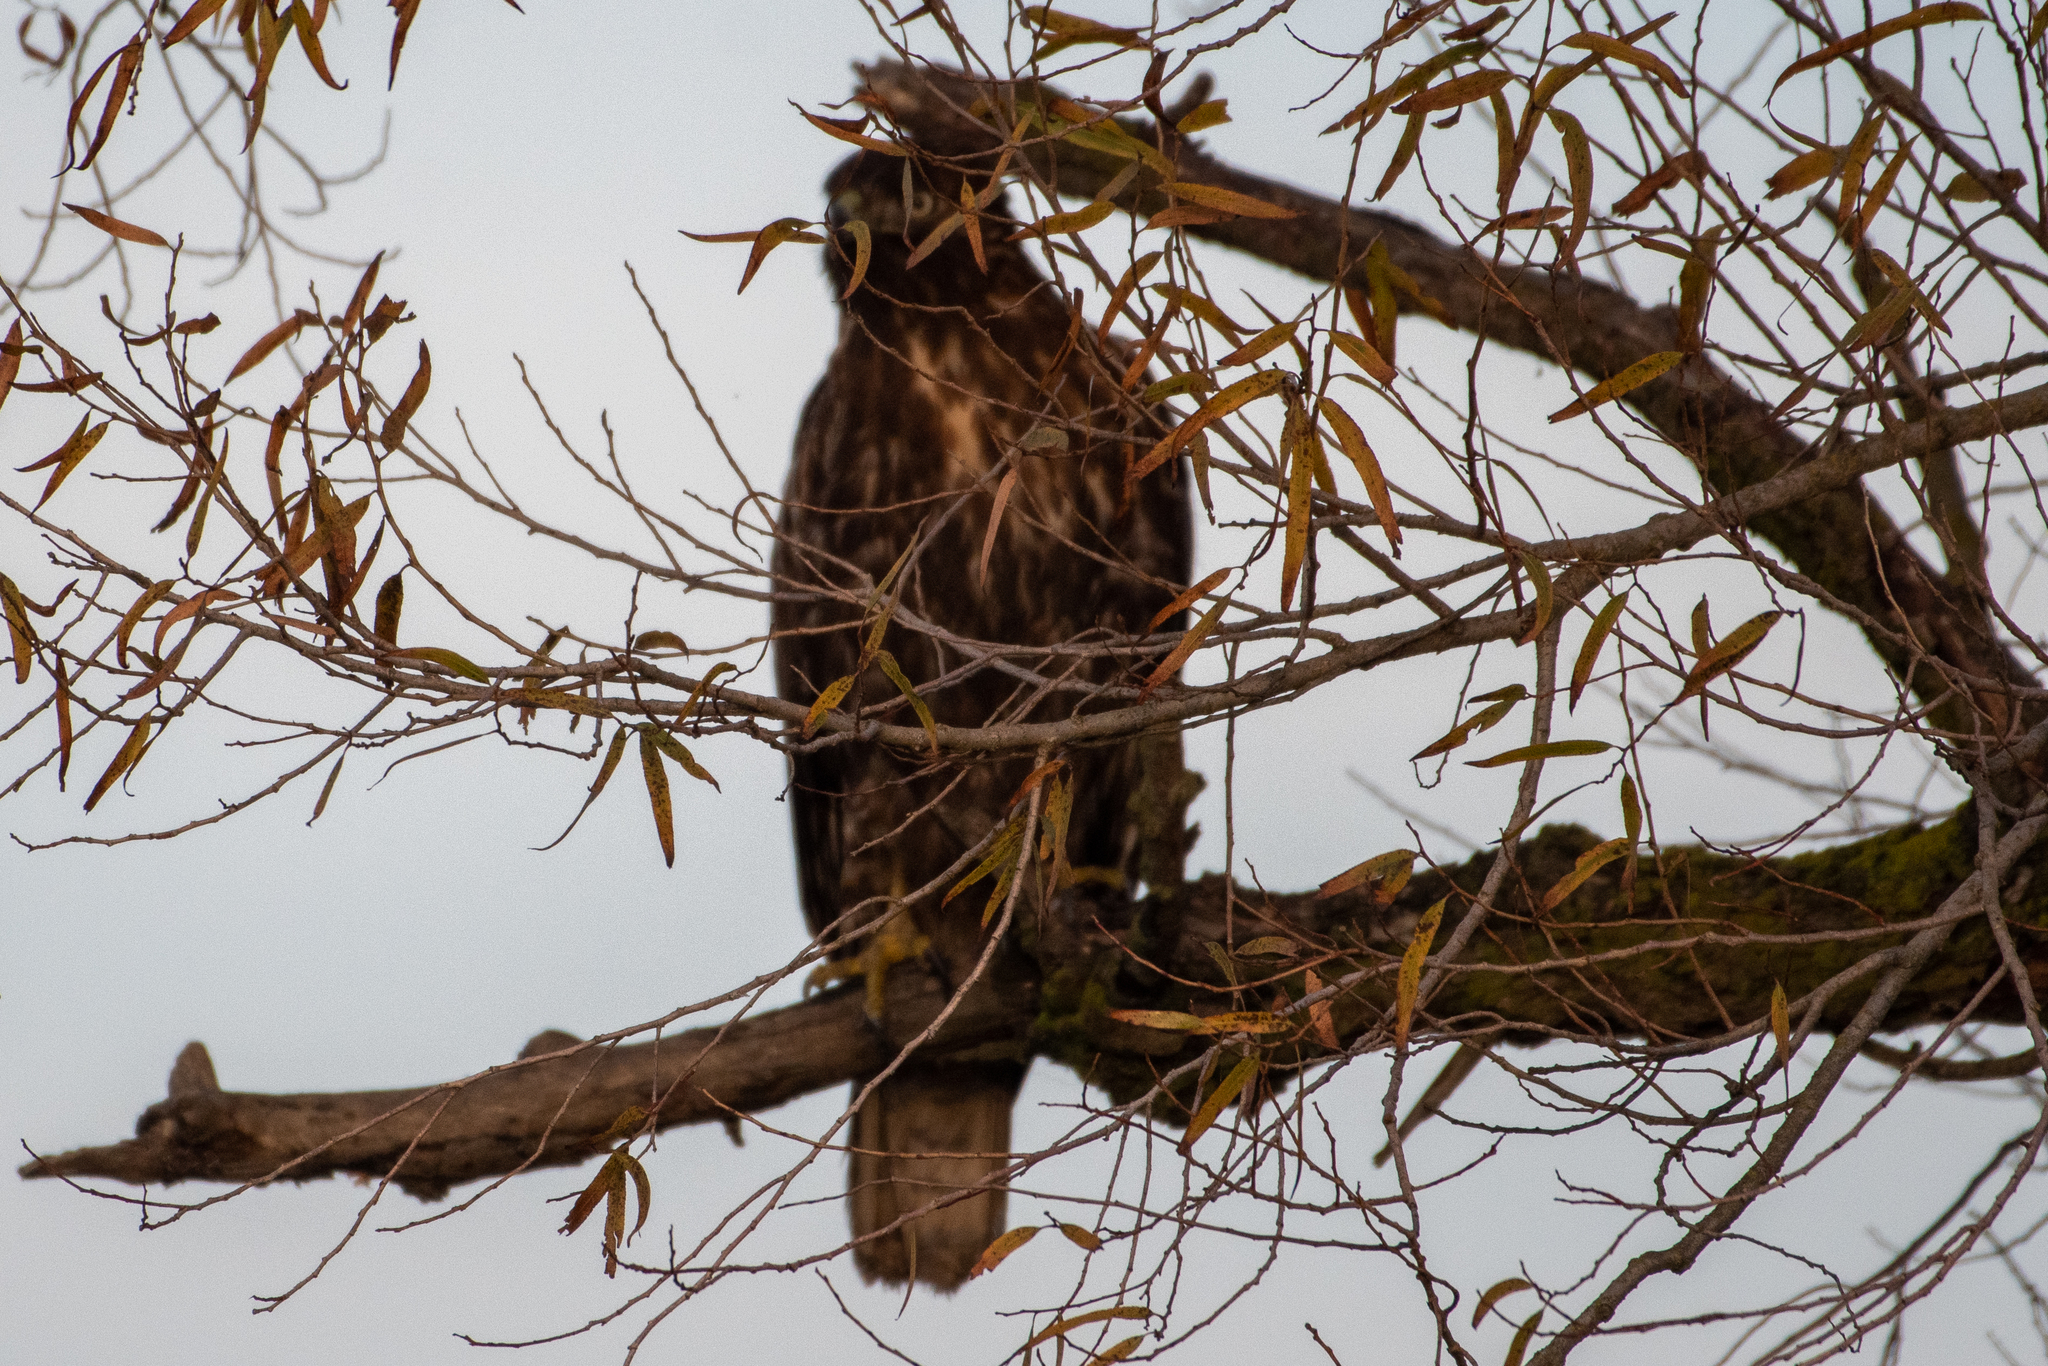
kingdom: Animalia
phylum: Chordata
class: Aves
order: Accipitriformes
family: Accipitridae
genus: Buteo
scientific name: Buteo jamaicensis
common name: Red-tailed hawk
